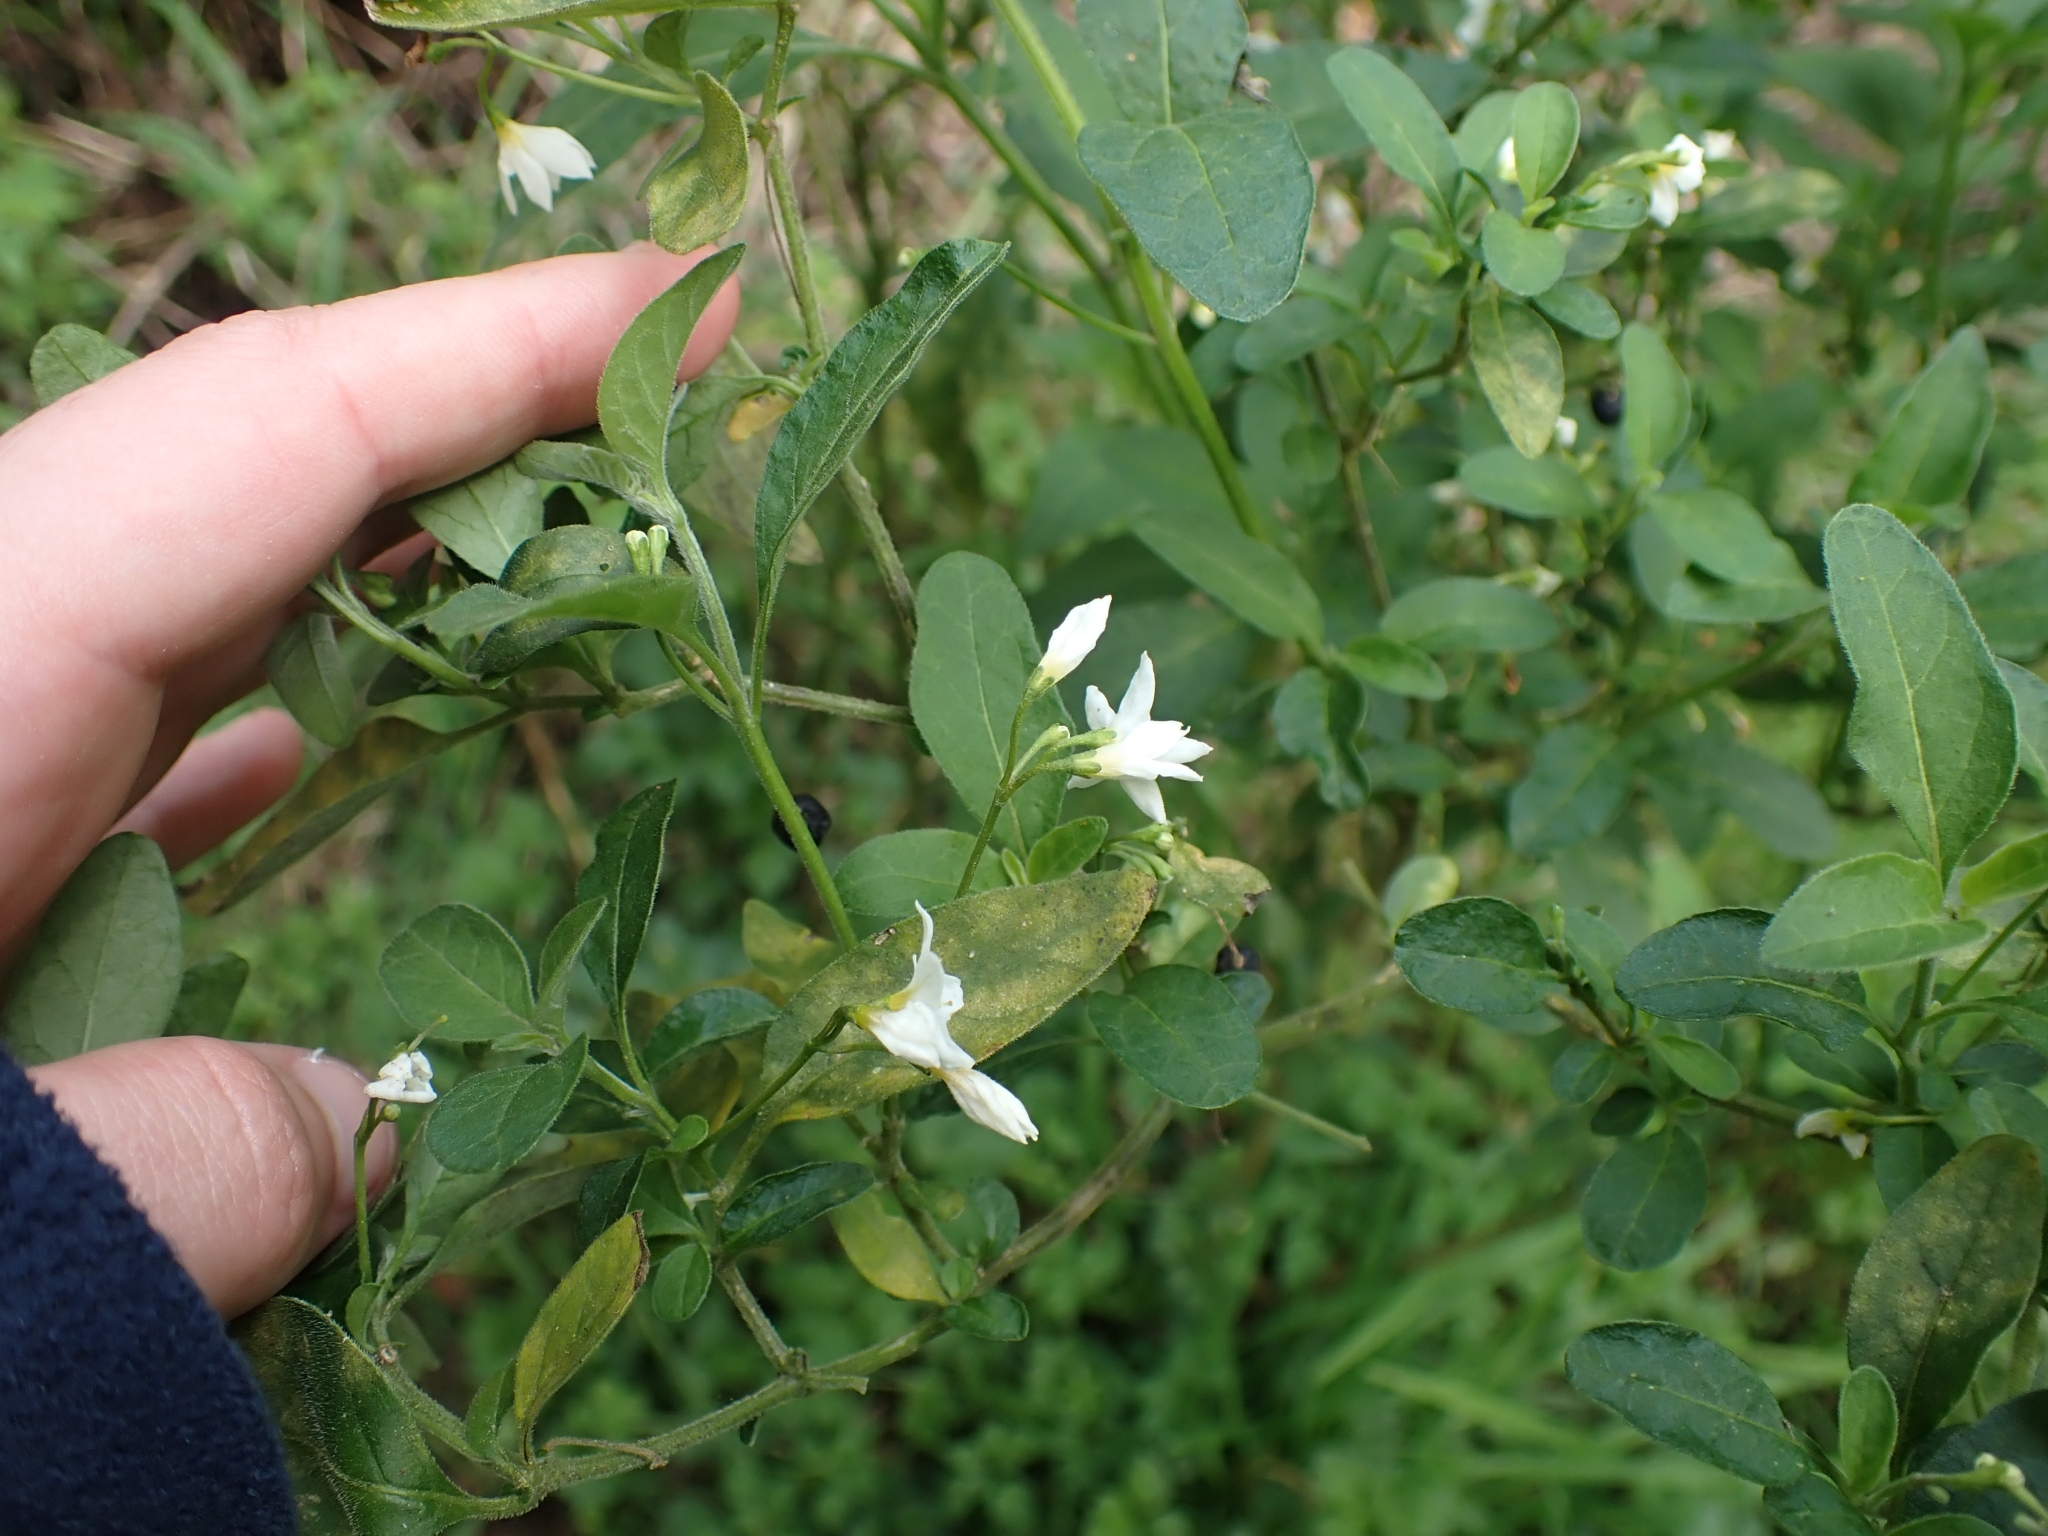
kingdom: Plantae
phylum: Tracheophyta
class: Magnoliopsida
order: Solanales
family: Solanaceae
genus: Solanum
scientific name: Solanum chenopodioides
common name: Tall nightshade
